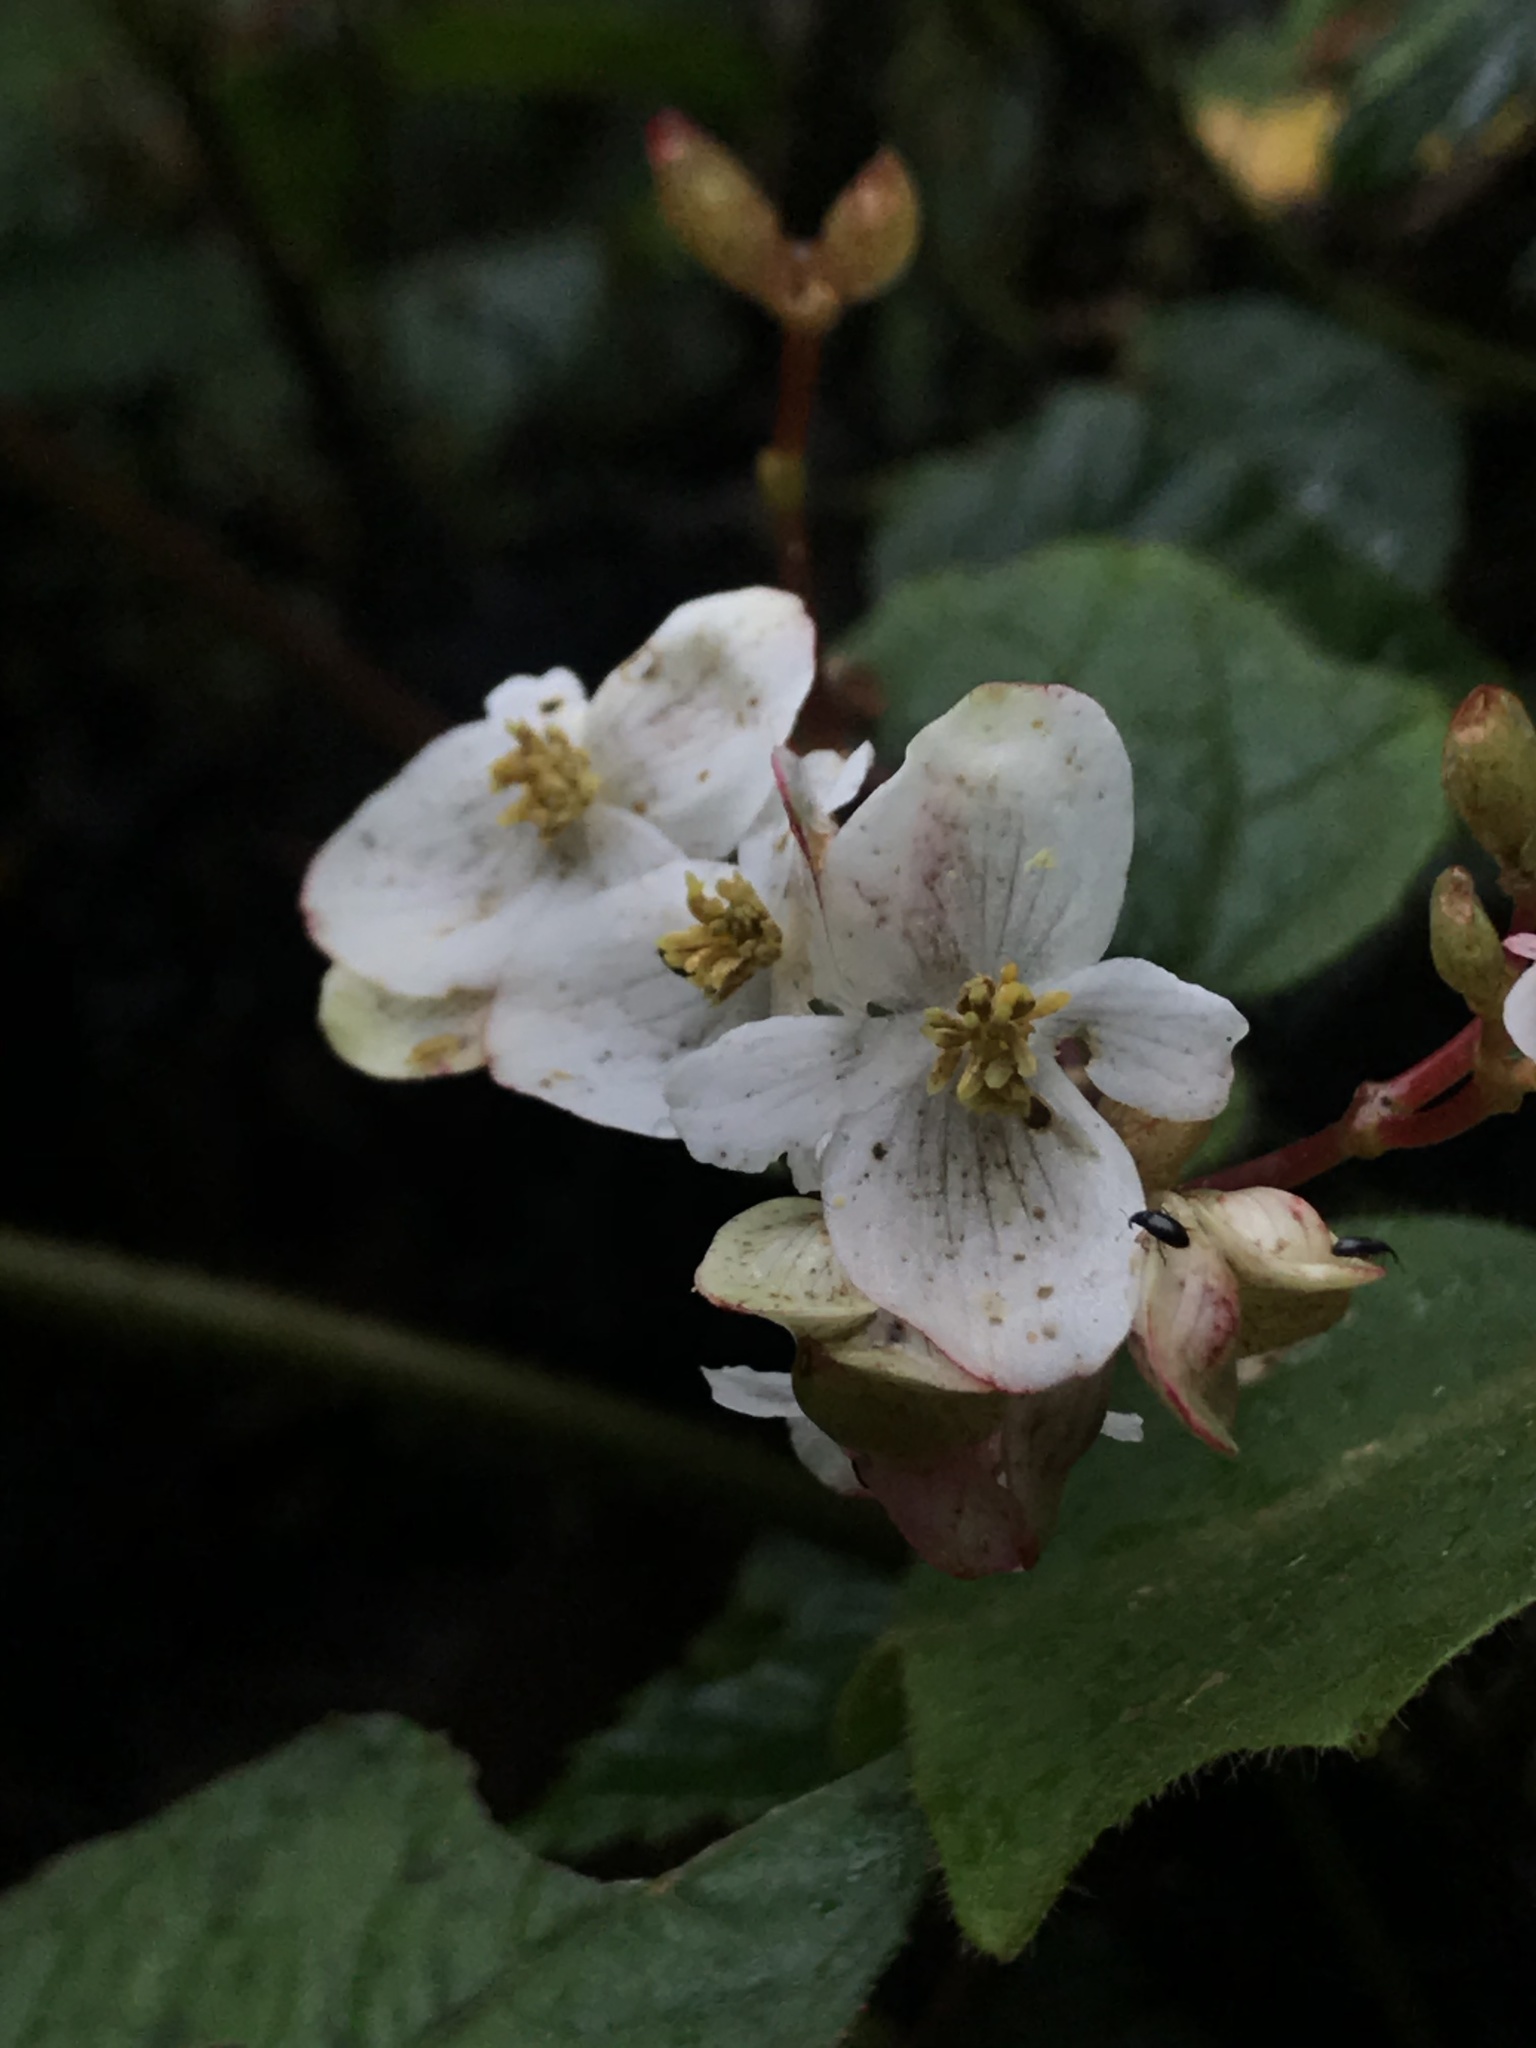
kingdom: Plantae
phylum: Tracheophyta
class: Magnoliopsida
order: Cucurbitales
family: Begoniaceae
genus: Begonia
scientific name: Begonia cornuta
